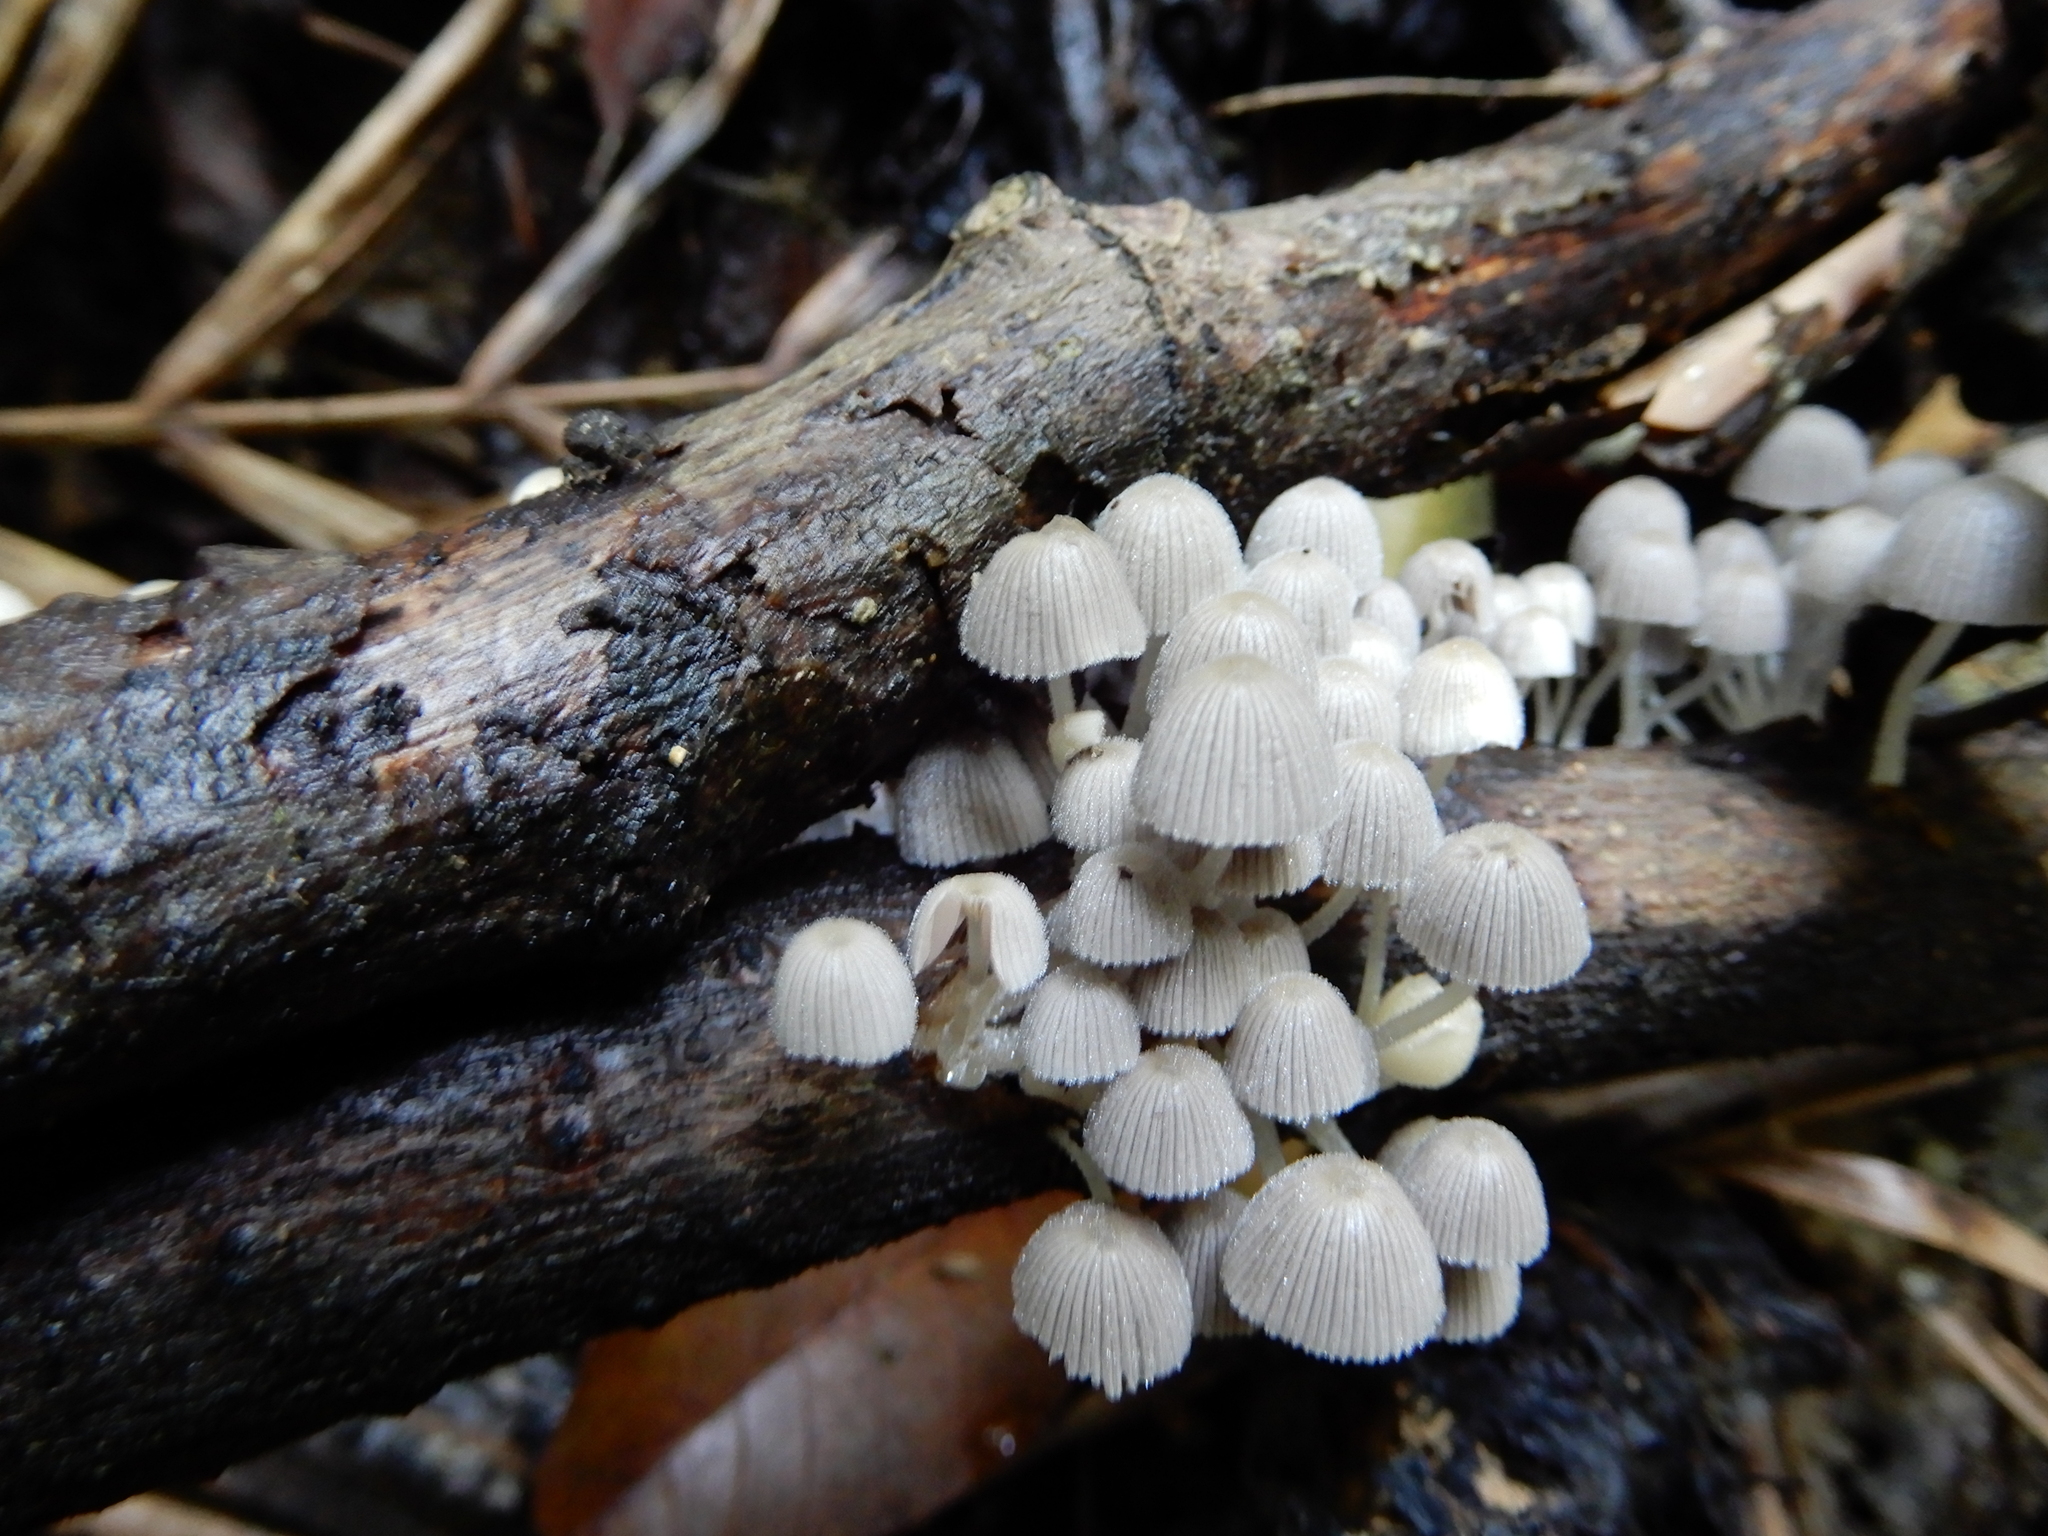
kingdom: Fungi
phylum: Basidiomycota
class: Agaricomycetes
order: Agaricales
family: Psathyrellaceae
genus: Coprinellus
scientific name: Coprinellus disseminatus
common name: Fairies' bonnets
